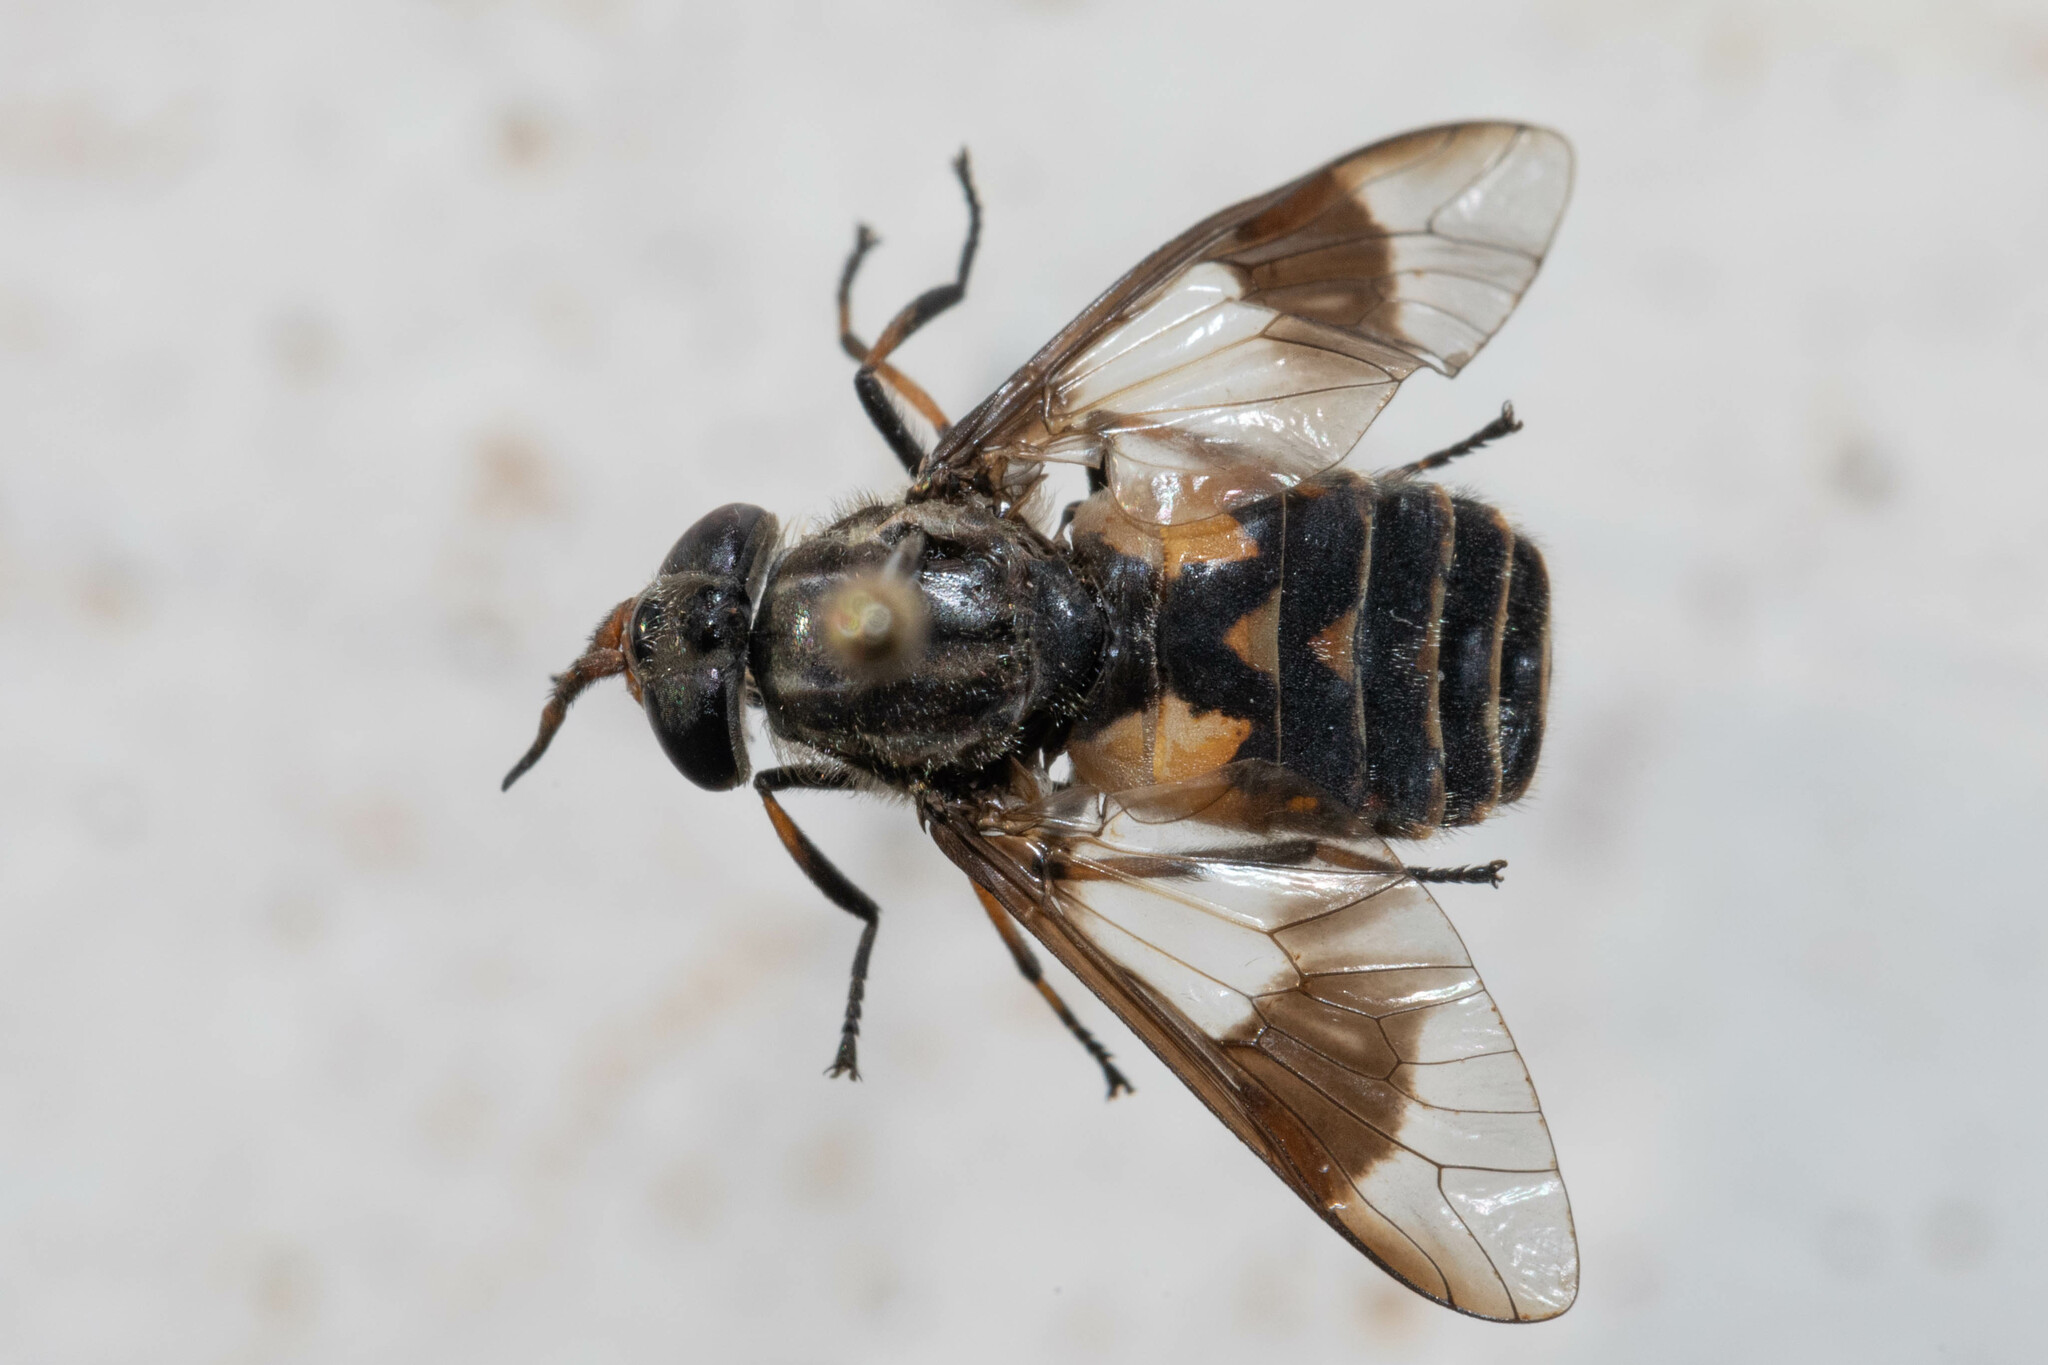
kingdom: Animalia
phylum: Arthropoda
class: Insecta
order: Diptera
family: Tabanidae
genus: Chrysops
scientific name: Chrysops callidus
